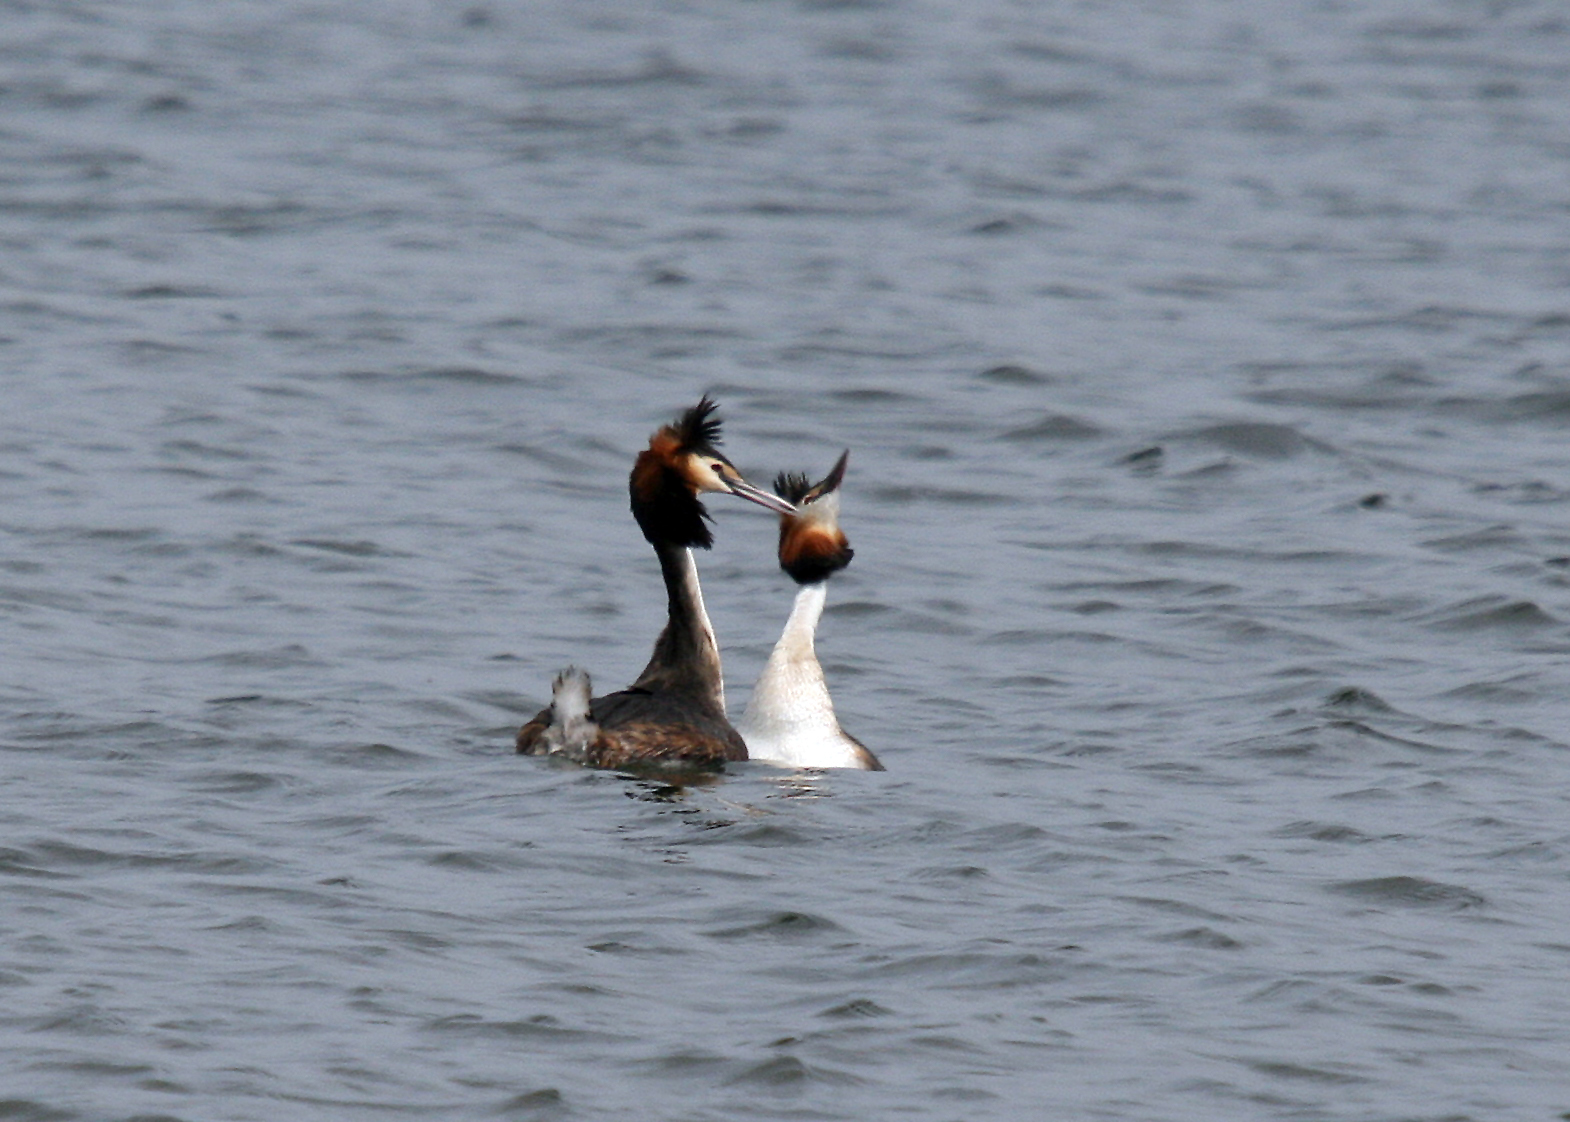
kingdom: Animalia
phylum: Chordata
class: Aves
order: Podicipediformes
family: Podicipedidae
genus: Podiceps
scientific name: Podiceps cristatus
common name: Great crested grebe
